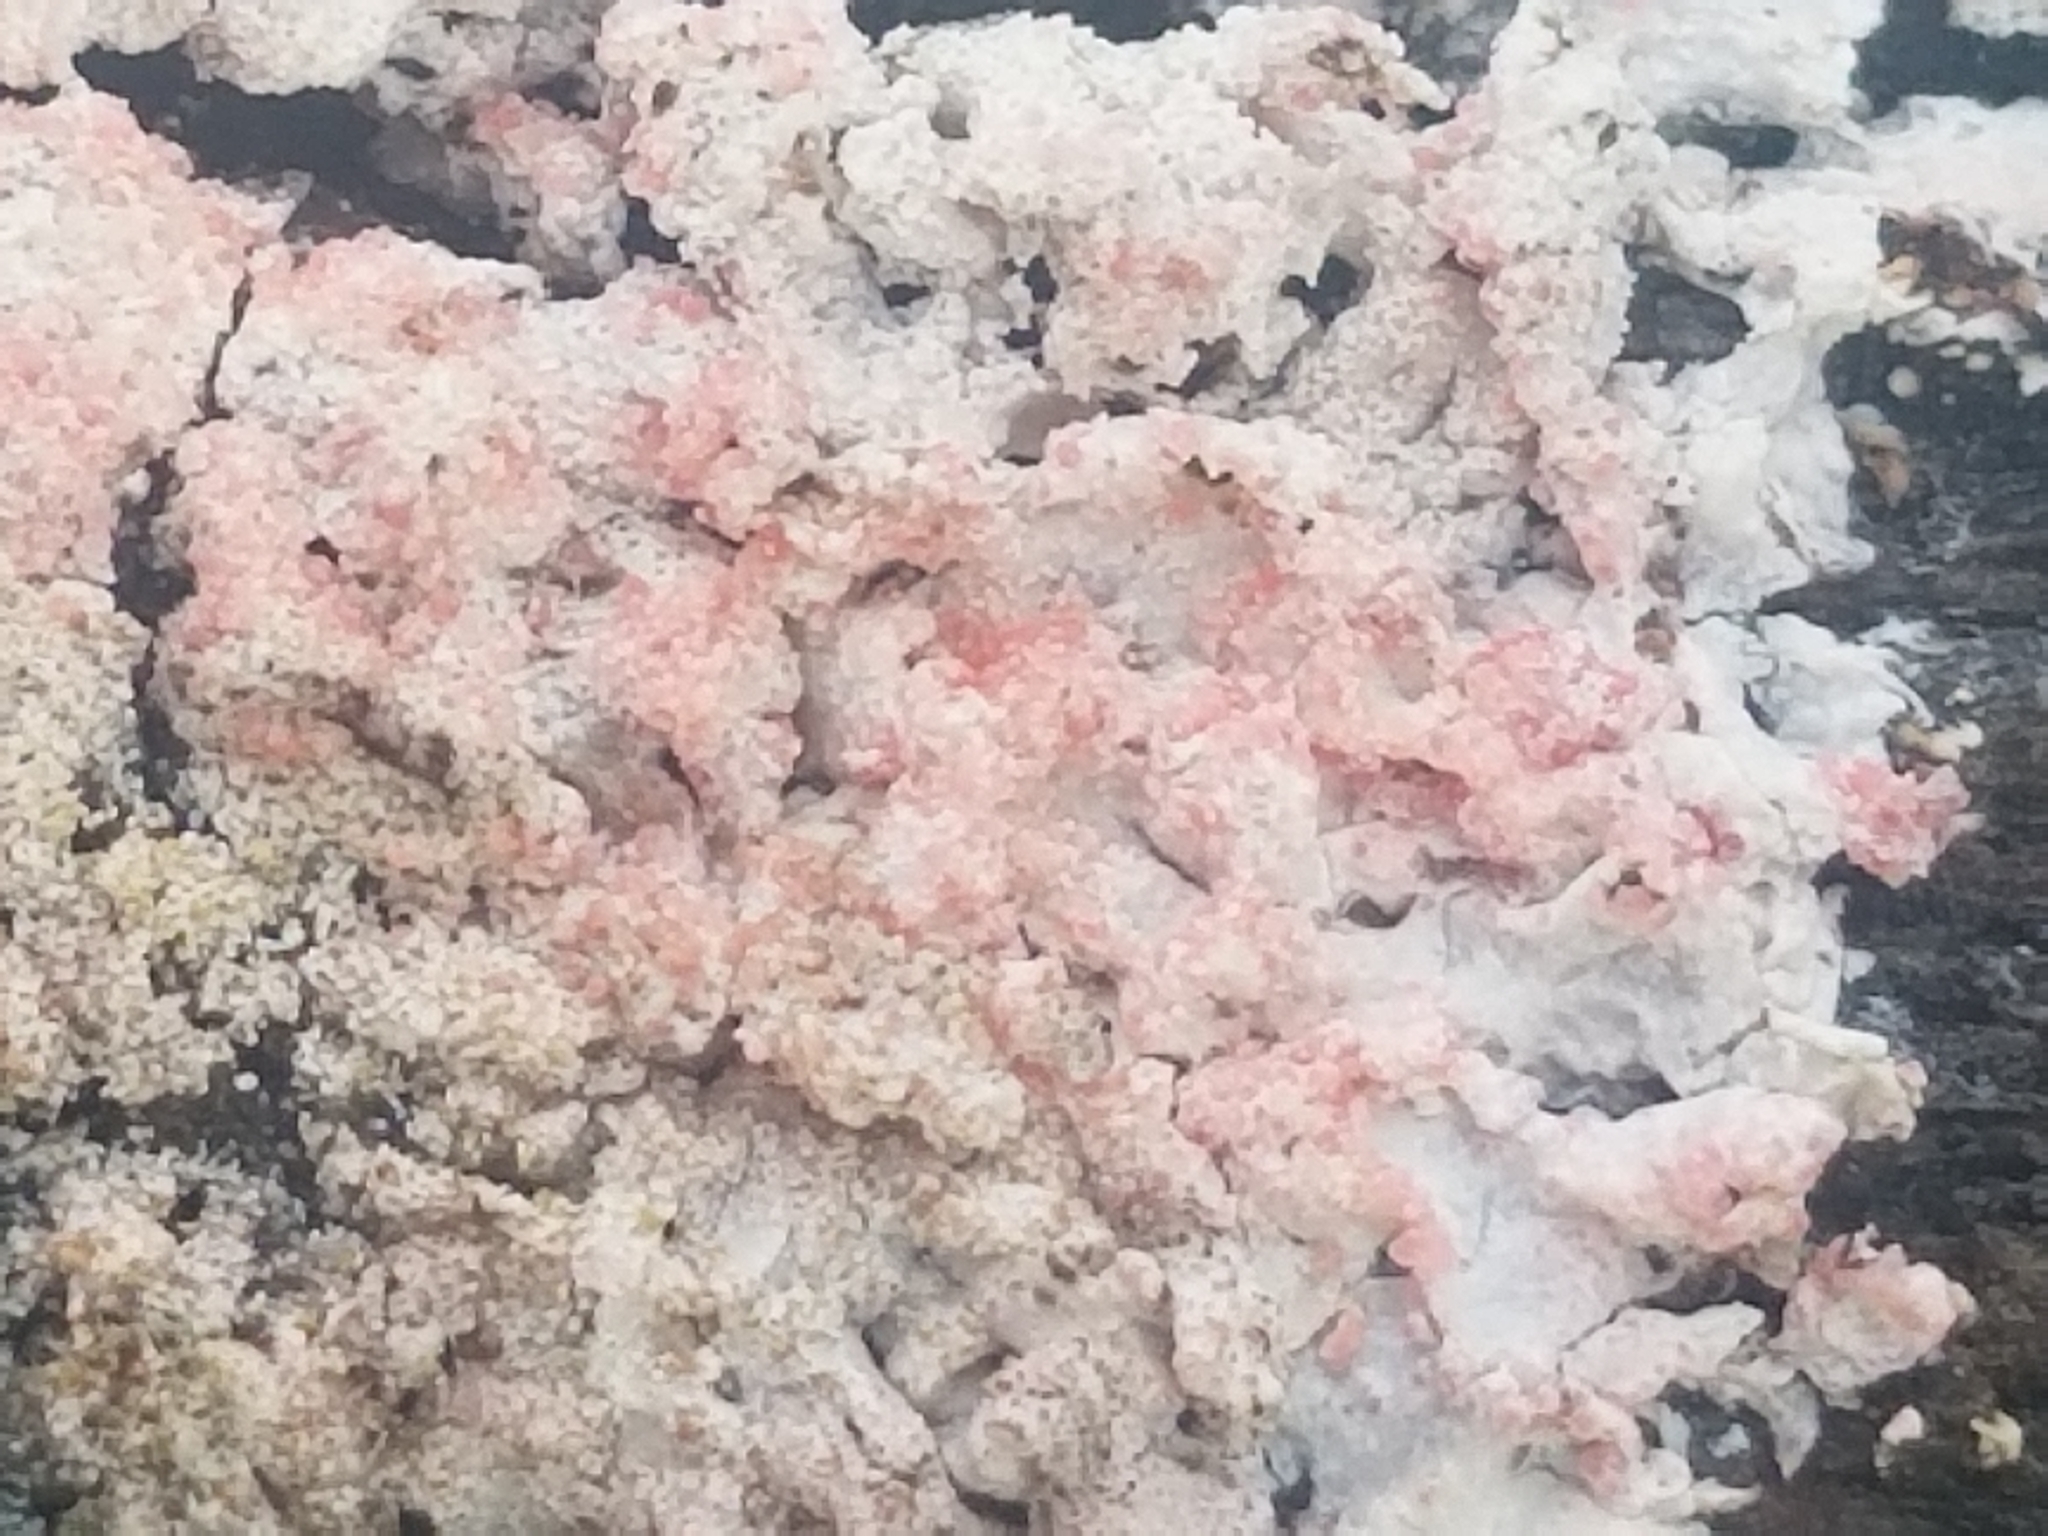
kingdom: Fungi
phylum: Ascomycota
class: Lecanoromycetes
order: Lecanorales
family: Parmeliaceae
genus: Imshaugia
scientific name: Imshaugia aleurites
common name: Salted starburst lichen
